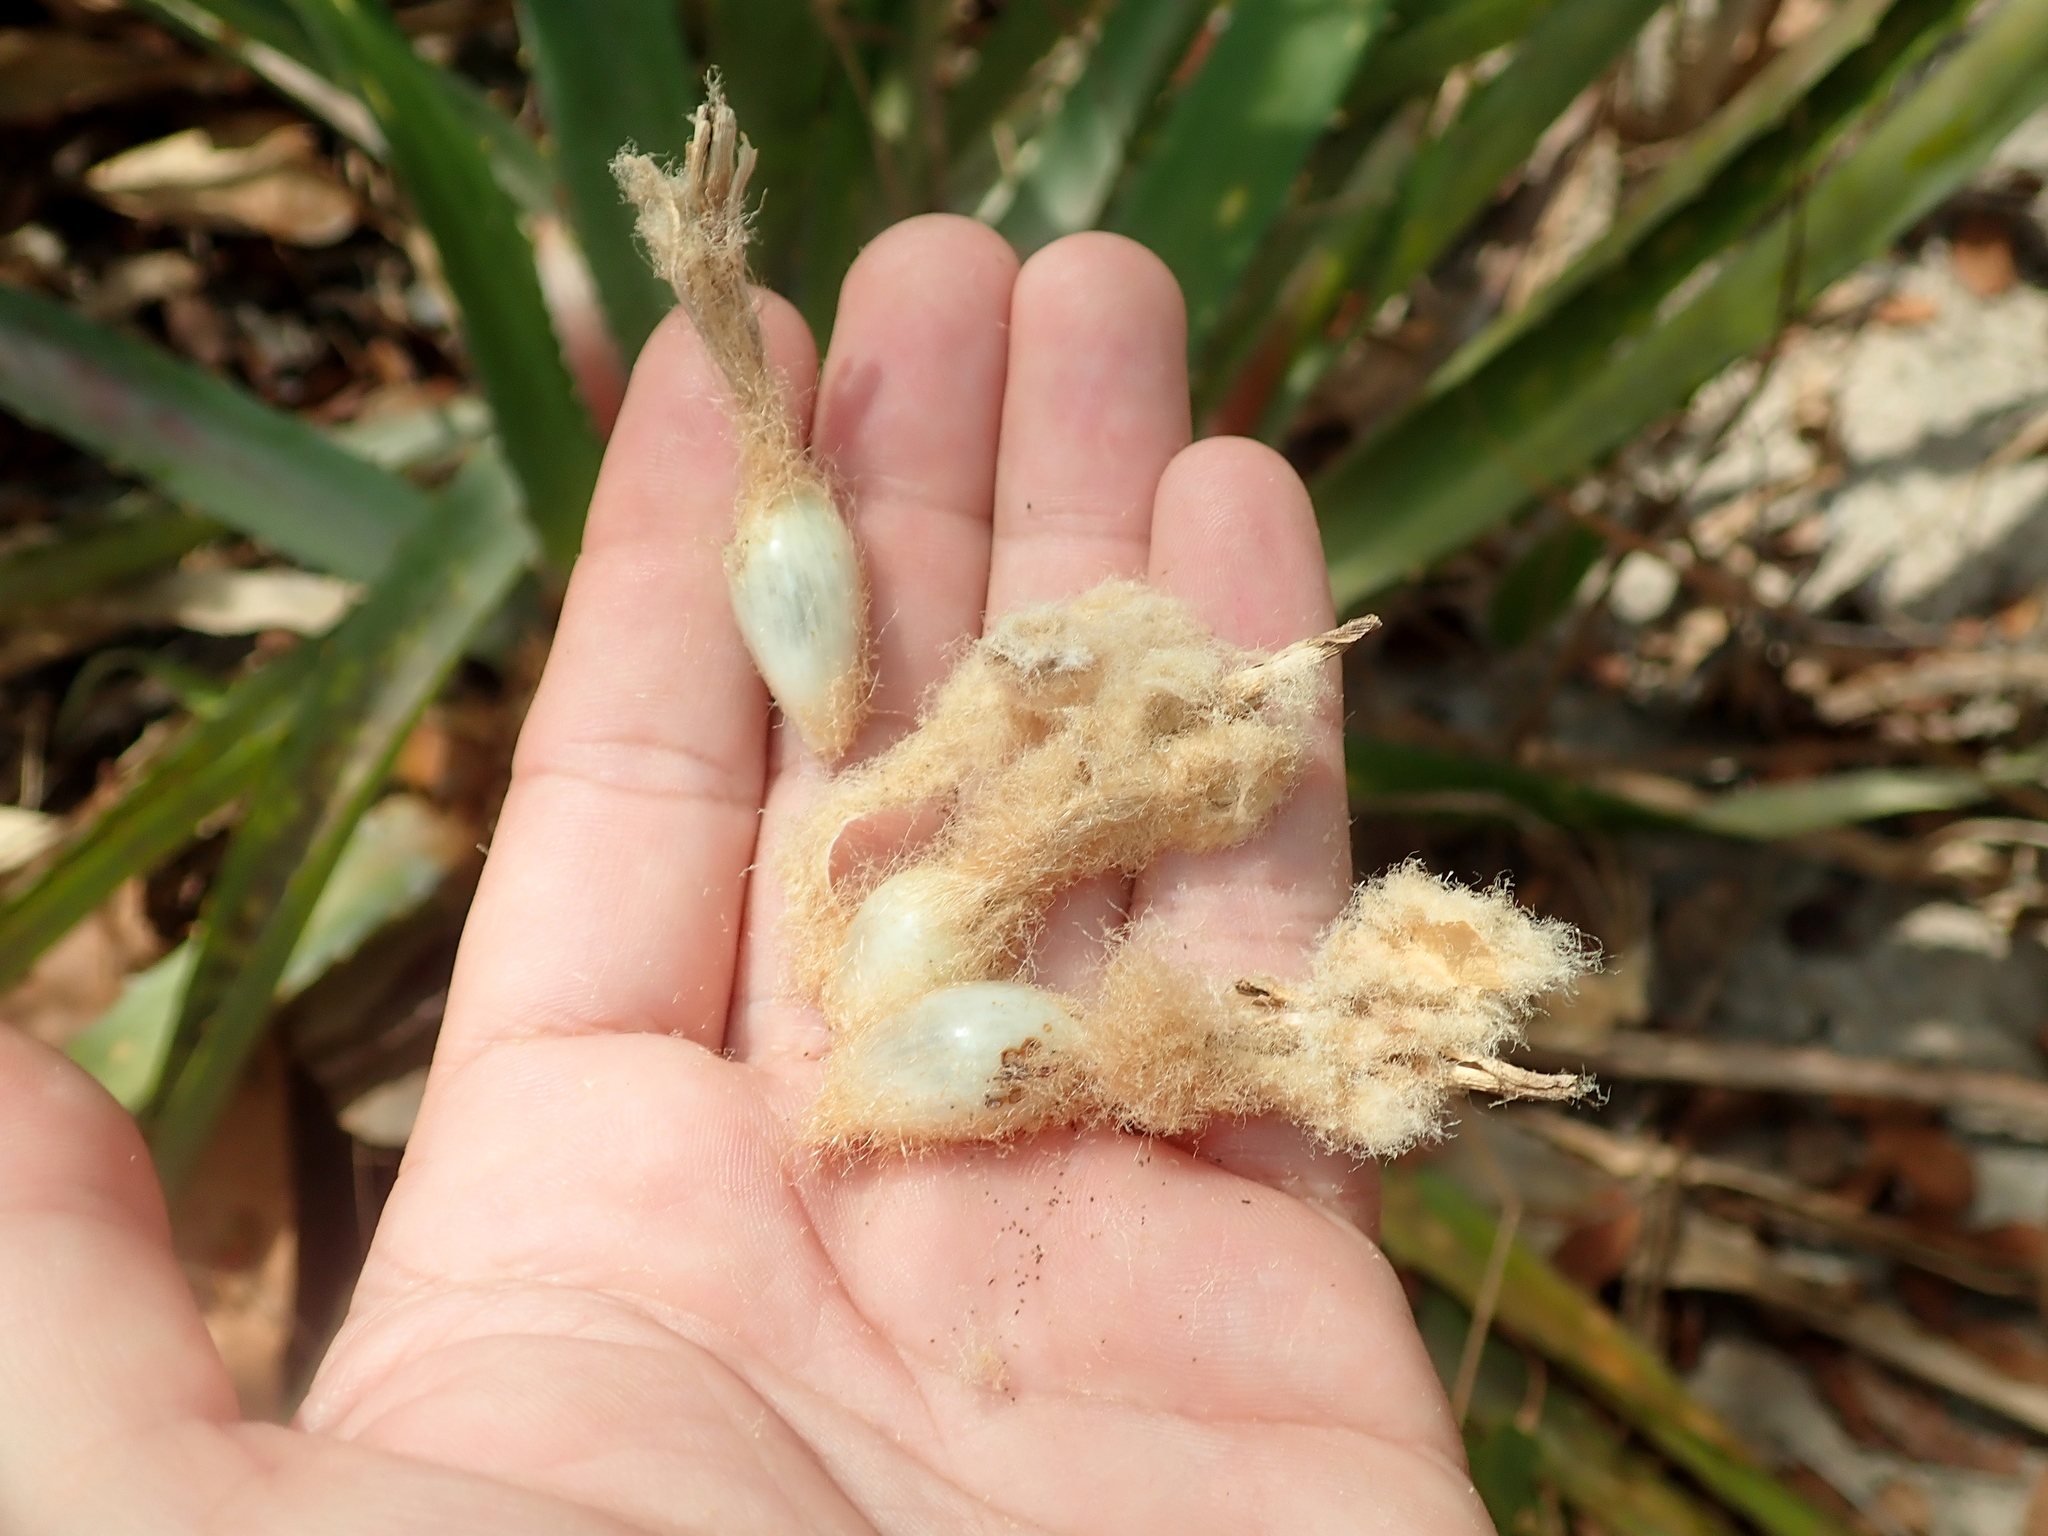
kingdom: Plantae
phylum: Tracheophyta
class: Liliopsida
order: Poales
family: Bromeliaceae
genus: Bromelia
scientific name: Bromelia villosa
